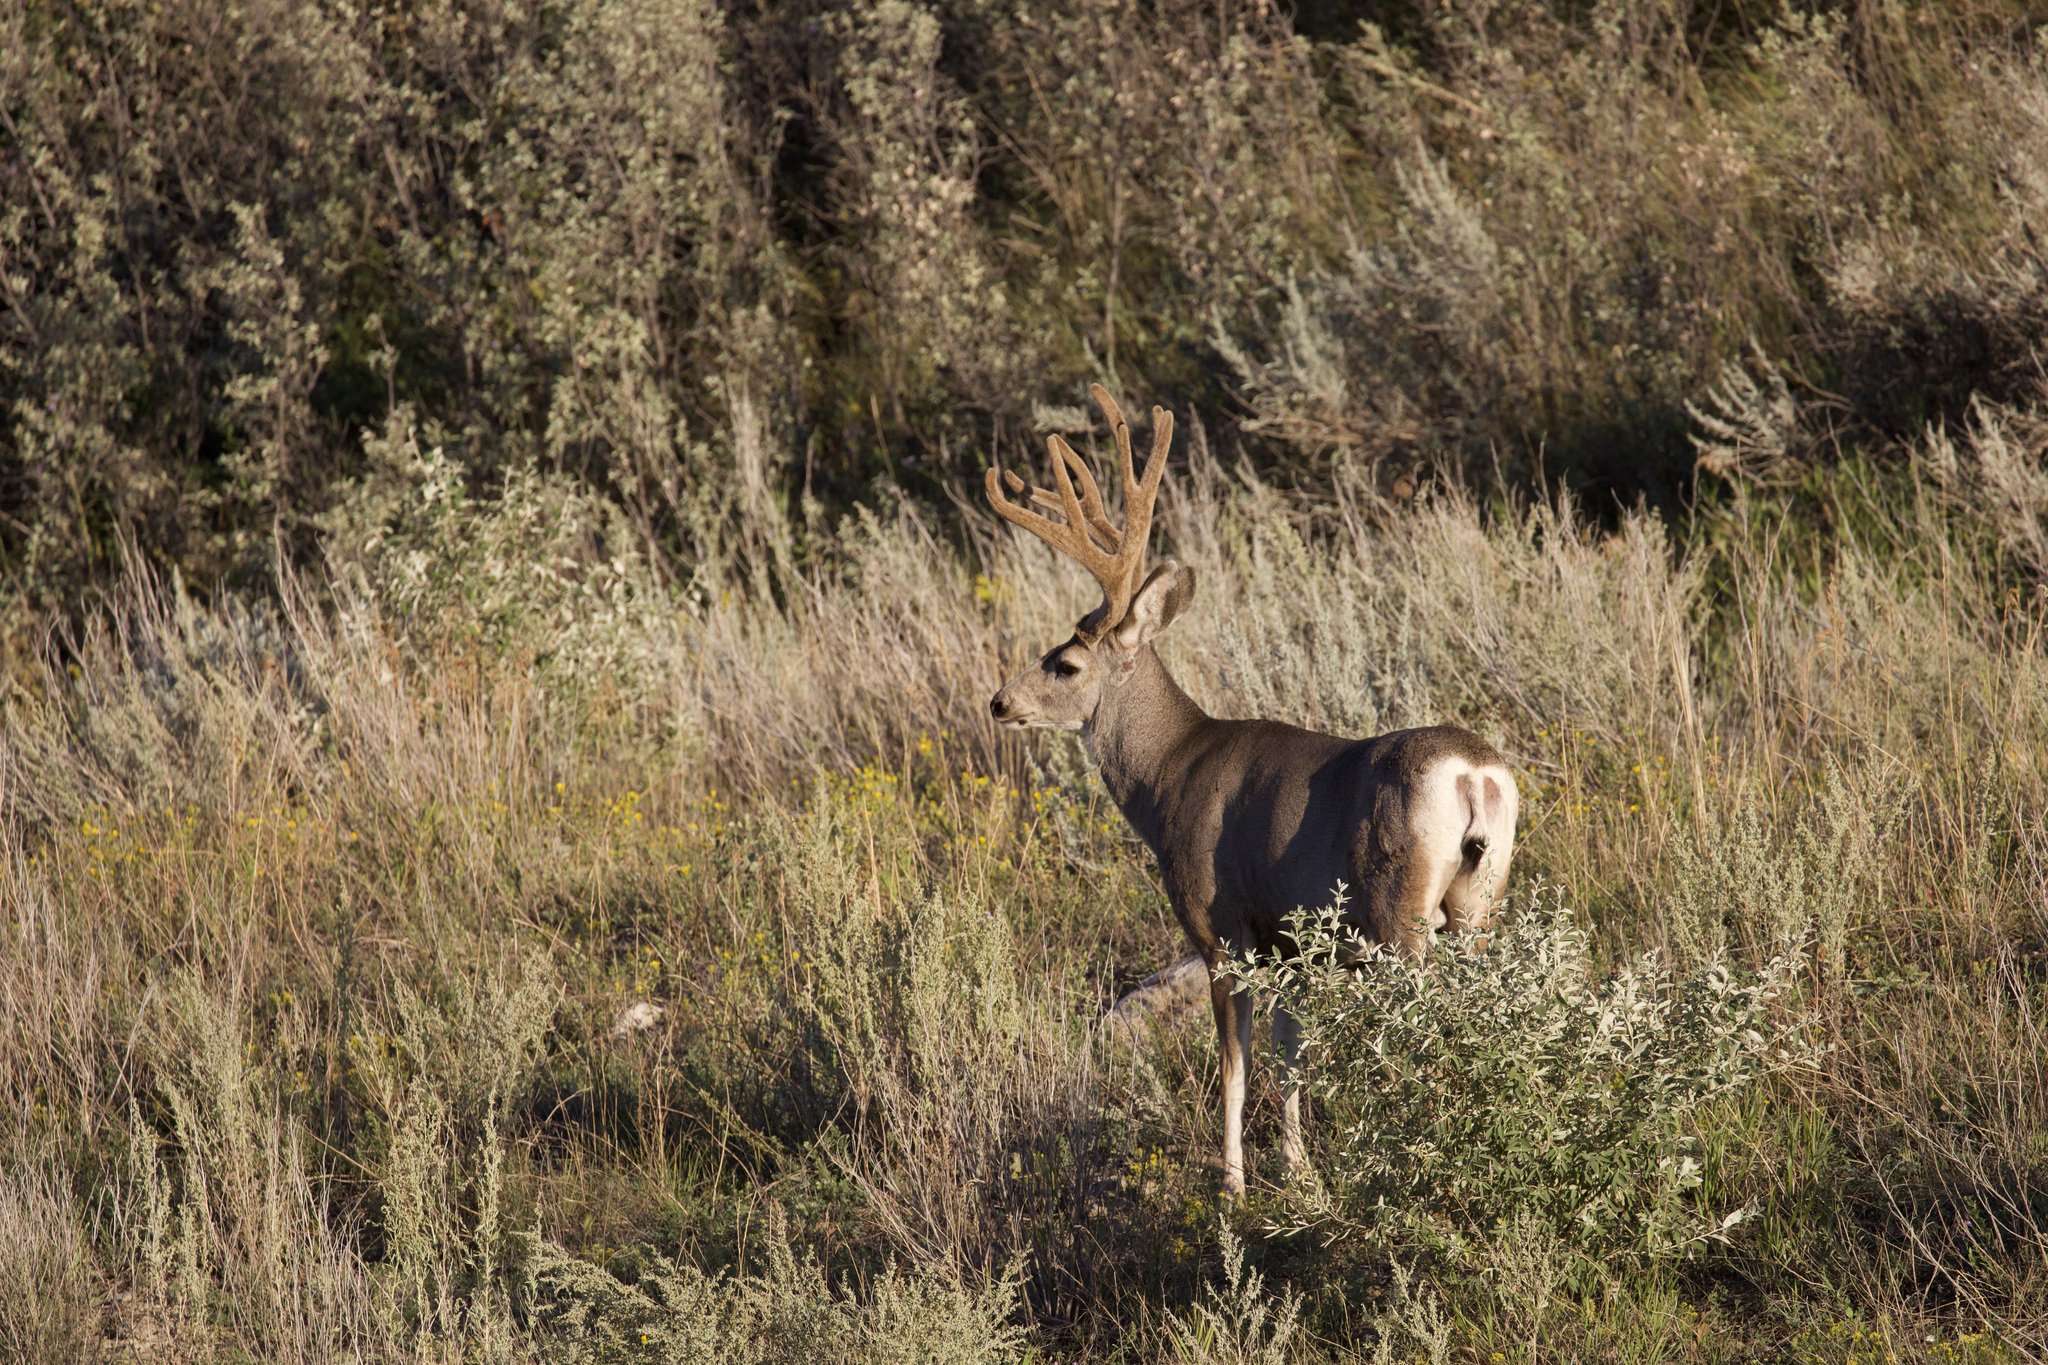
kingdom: Animalia
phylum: Chordata
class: Mammalia
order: Artiodactyla
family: Cervidae
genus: Odocoileus
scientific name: Odocoileus hemionus
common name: Mule deer
